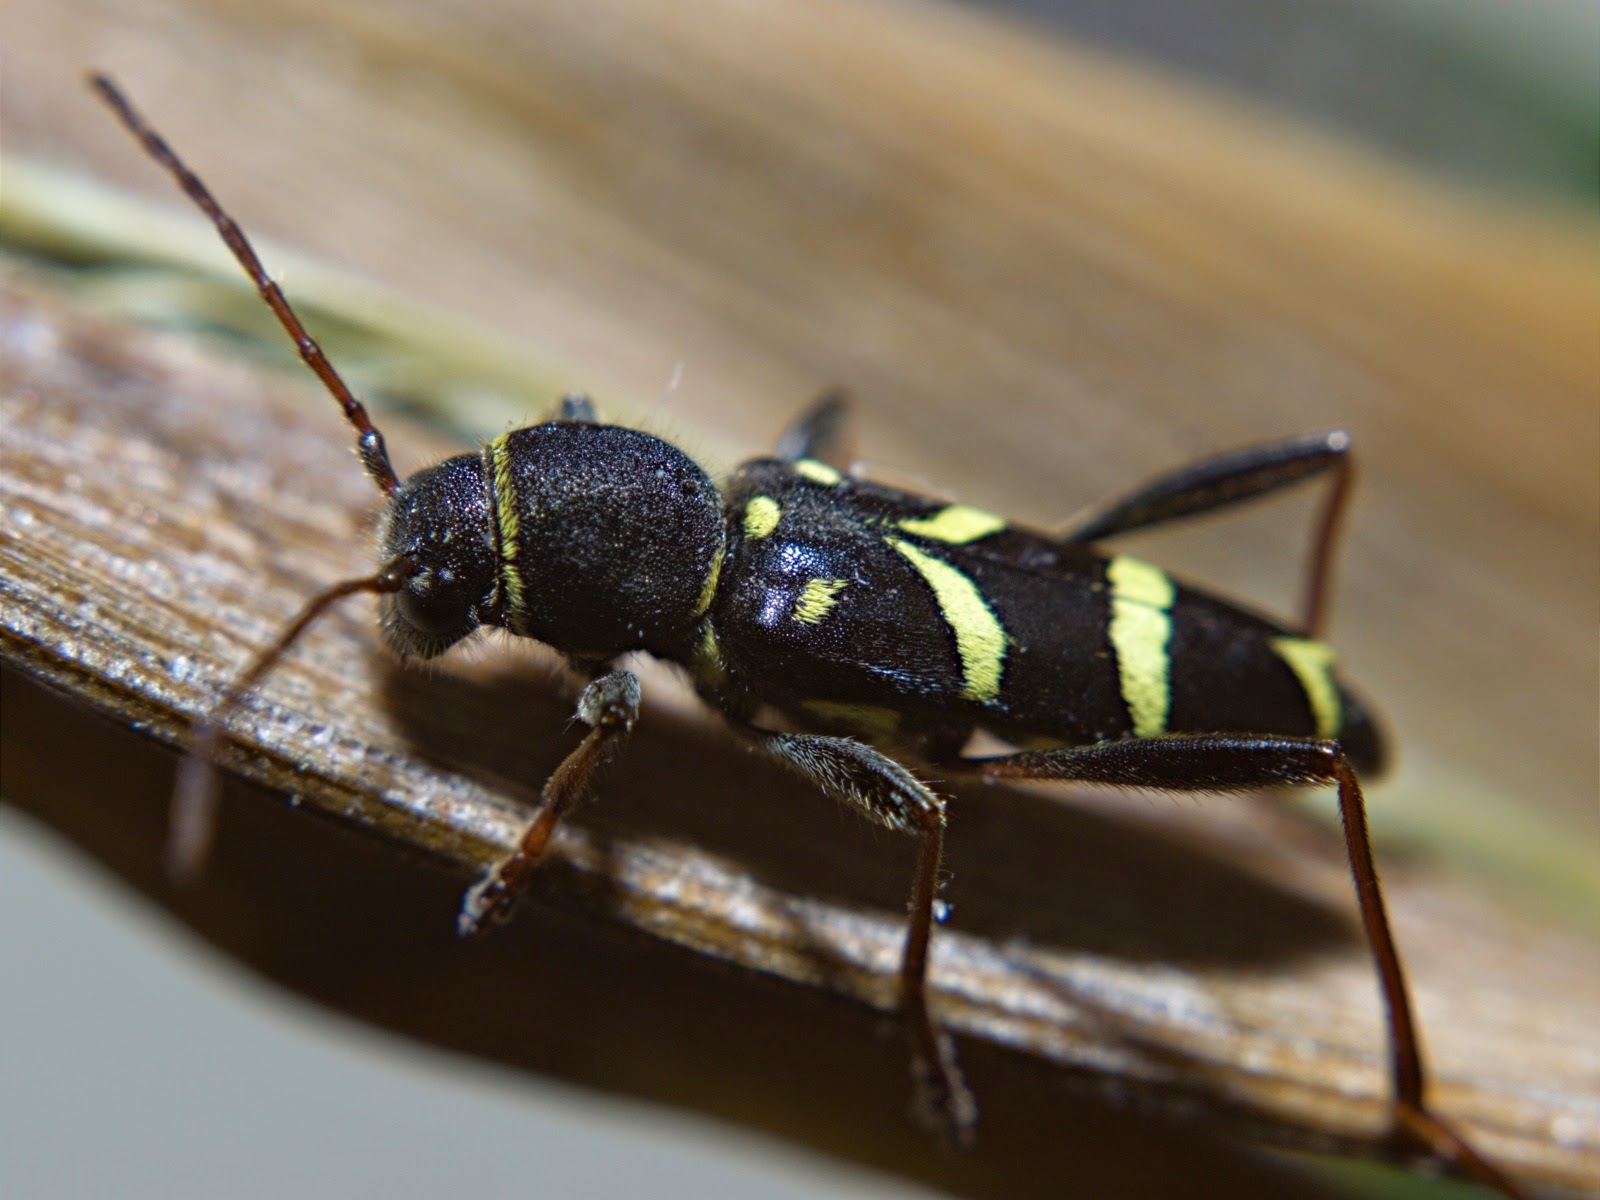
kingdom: Animalia
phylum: Arthropoda
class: Insecta
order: Coleoptera
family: Cerambycidae
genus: Clytus
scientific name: Clytus lama
